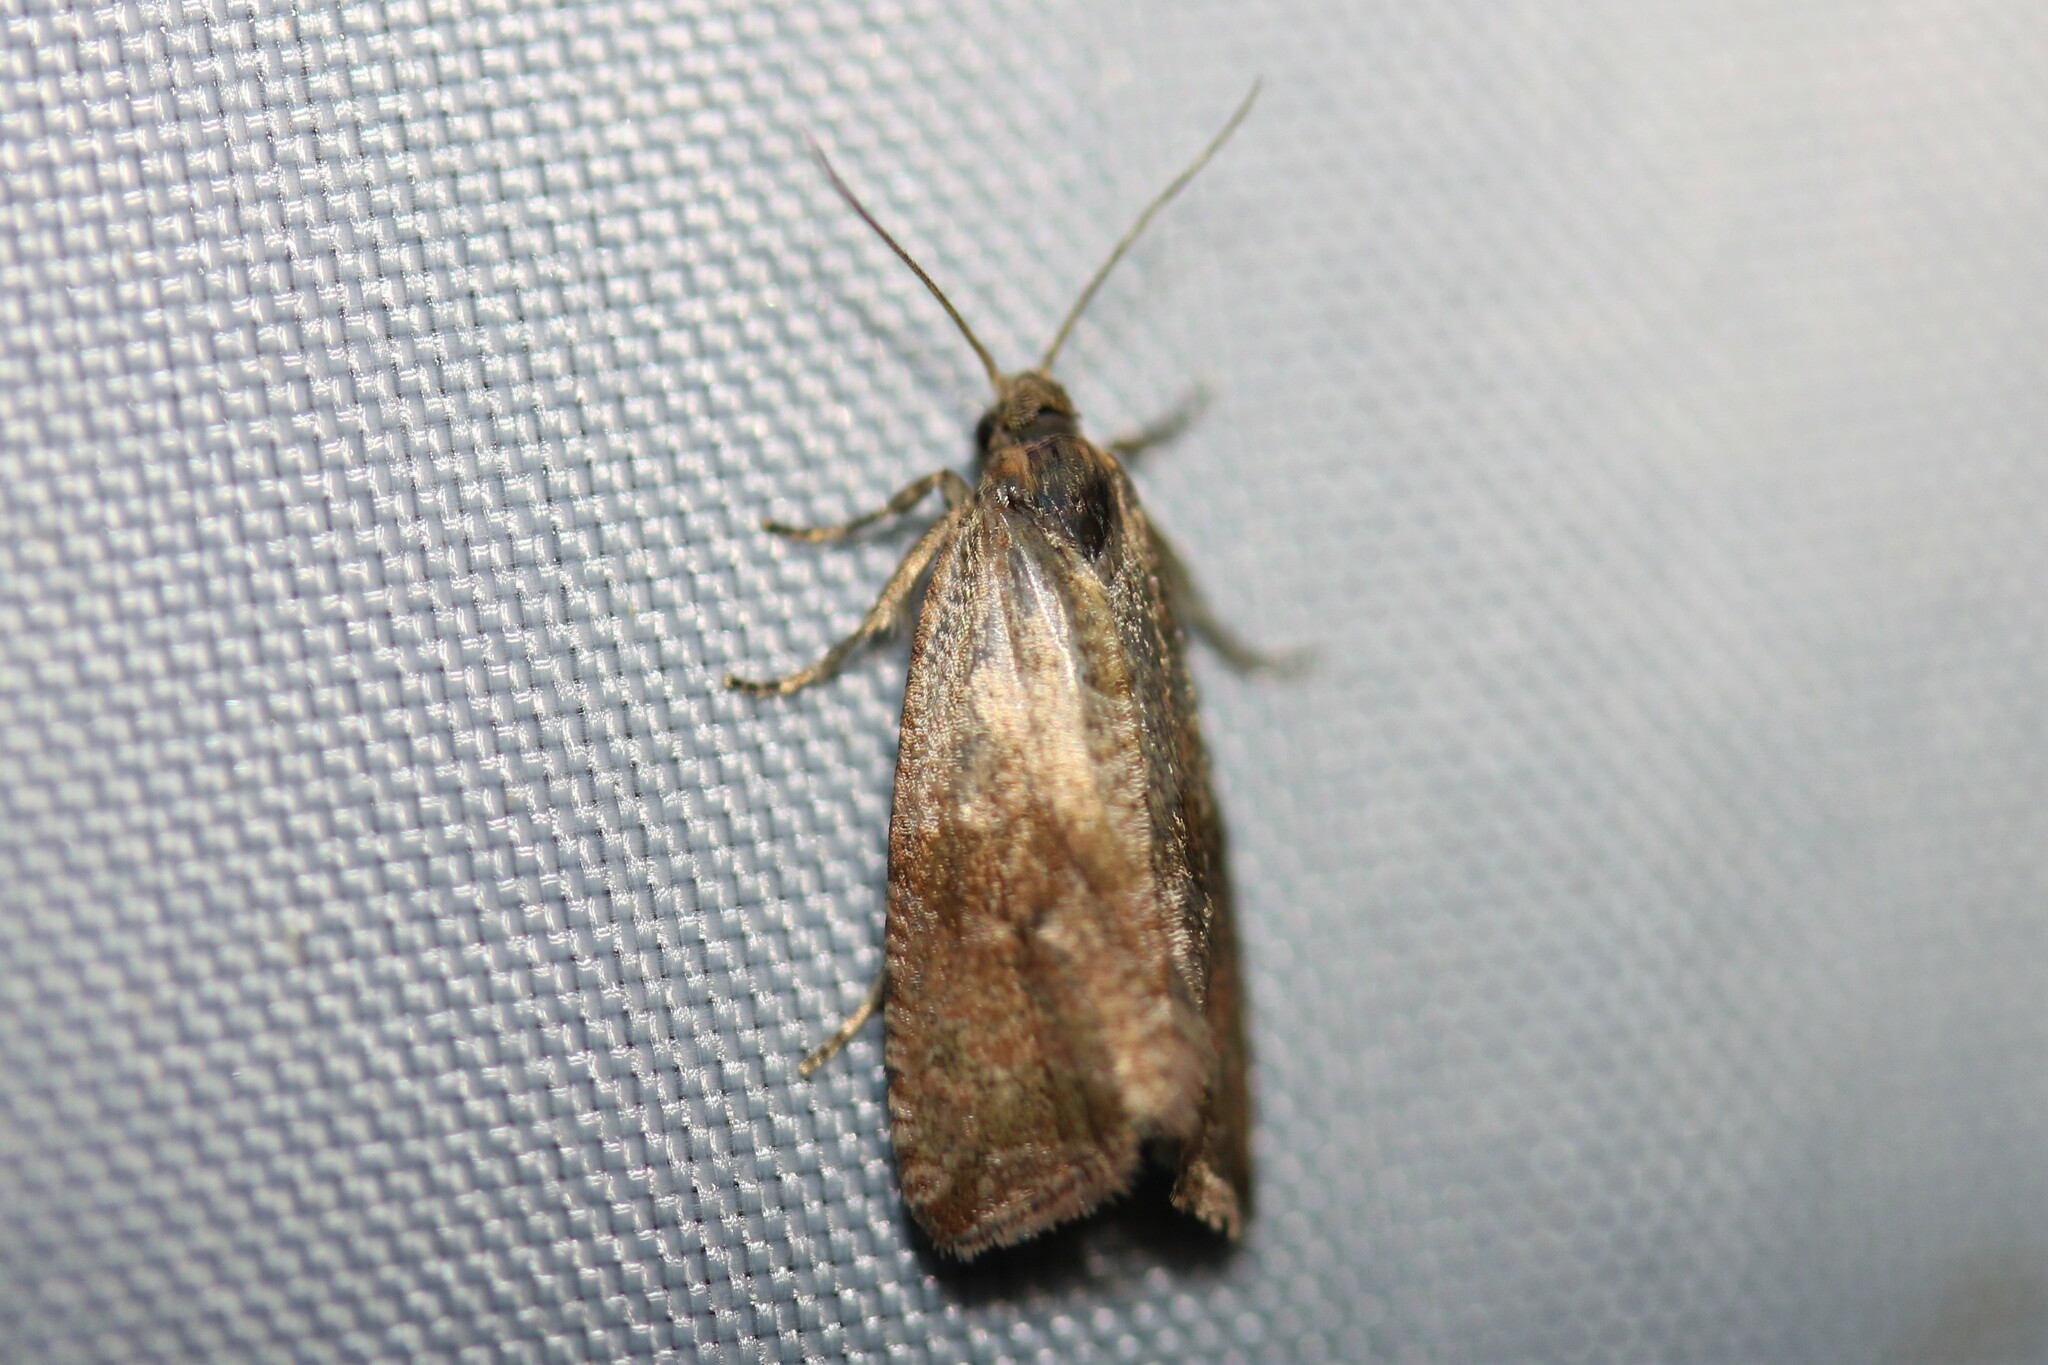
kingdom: Animalia
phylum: Arthropoda
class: Insecta
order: Lepidoptera
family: Tortricidae
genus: Celypha
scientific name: Celypha striana
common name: Barred marble
